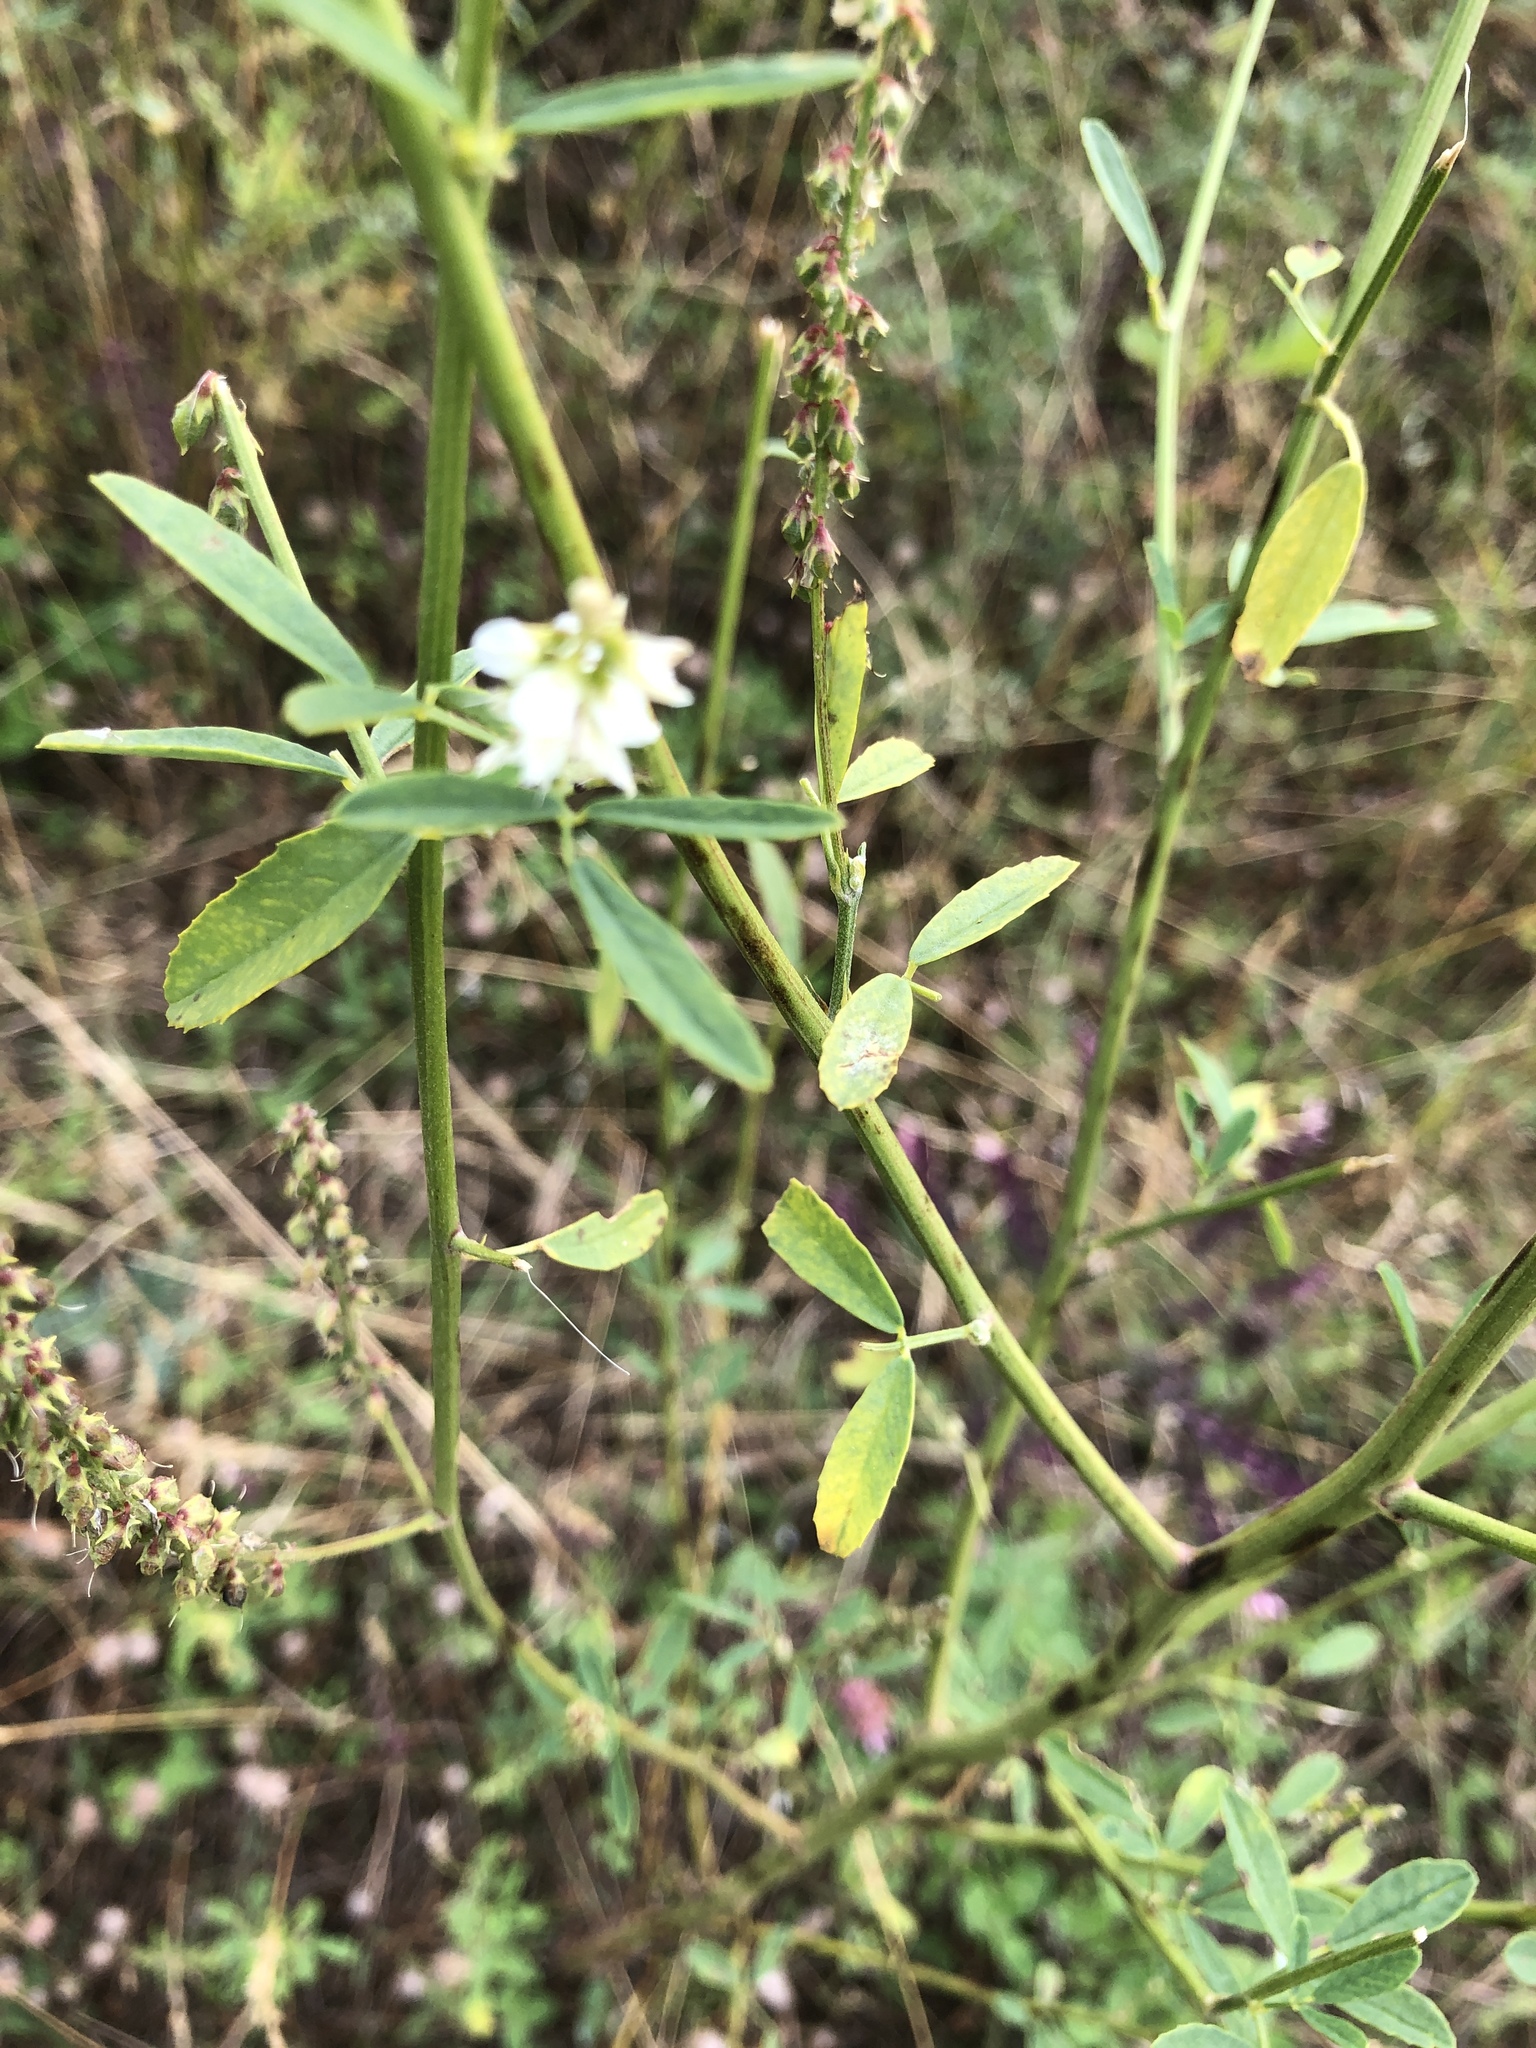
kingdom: Plantae
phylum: Tracheophyta
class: Magnoliopsida
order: Fabales
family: Fabaceae
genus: Melilotus
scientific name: Melilotus albus
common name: White melilot
